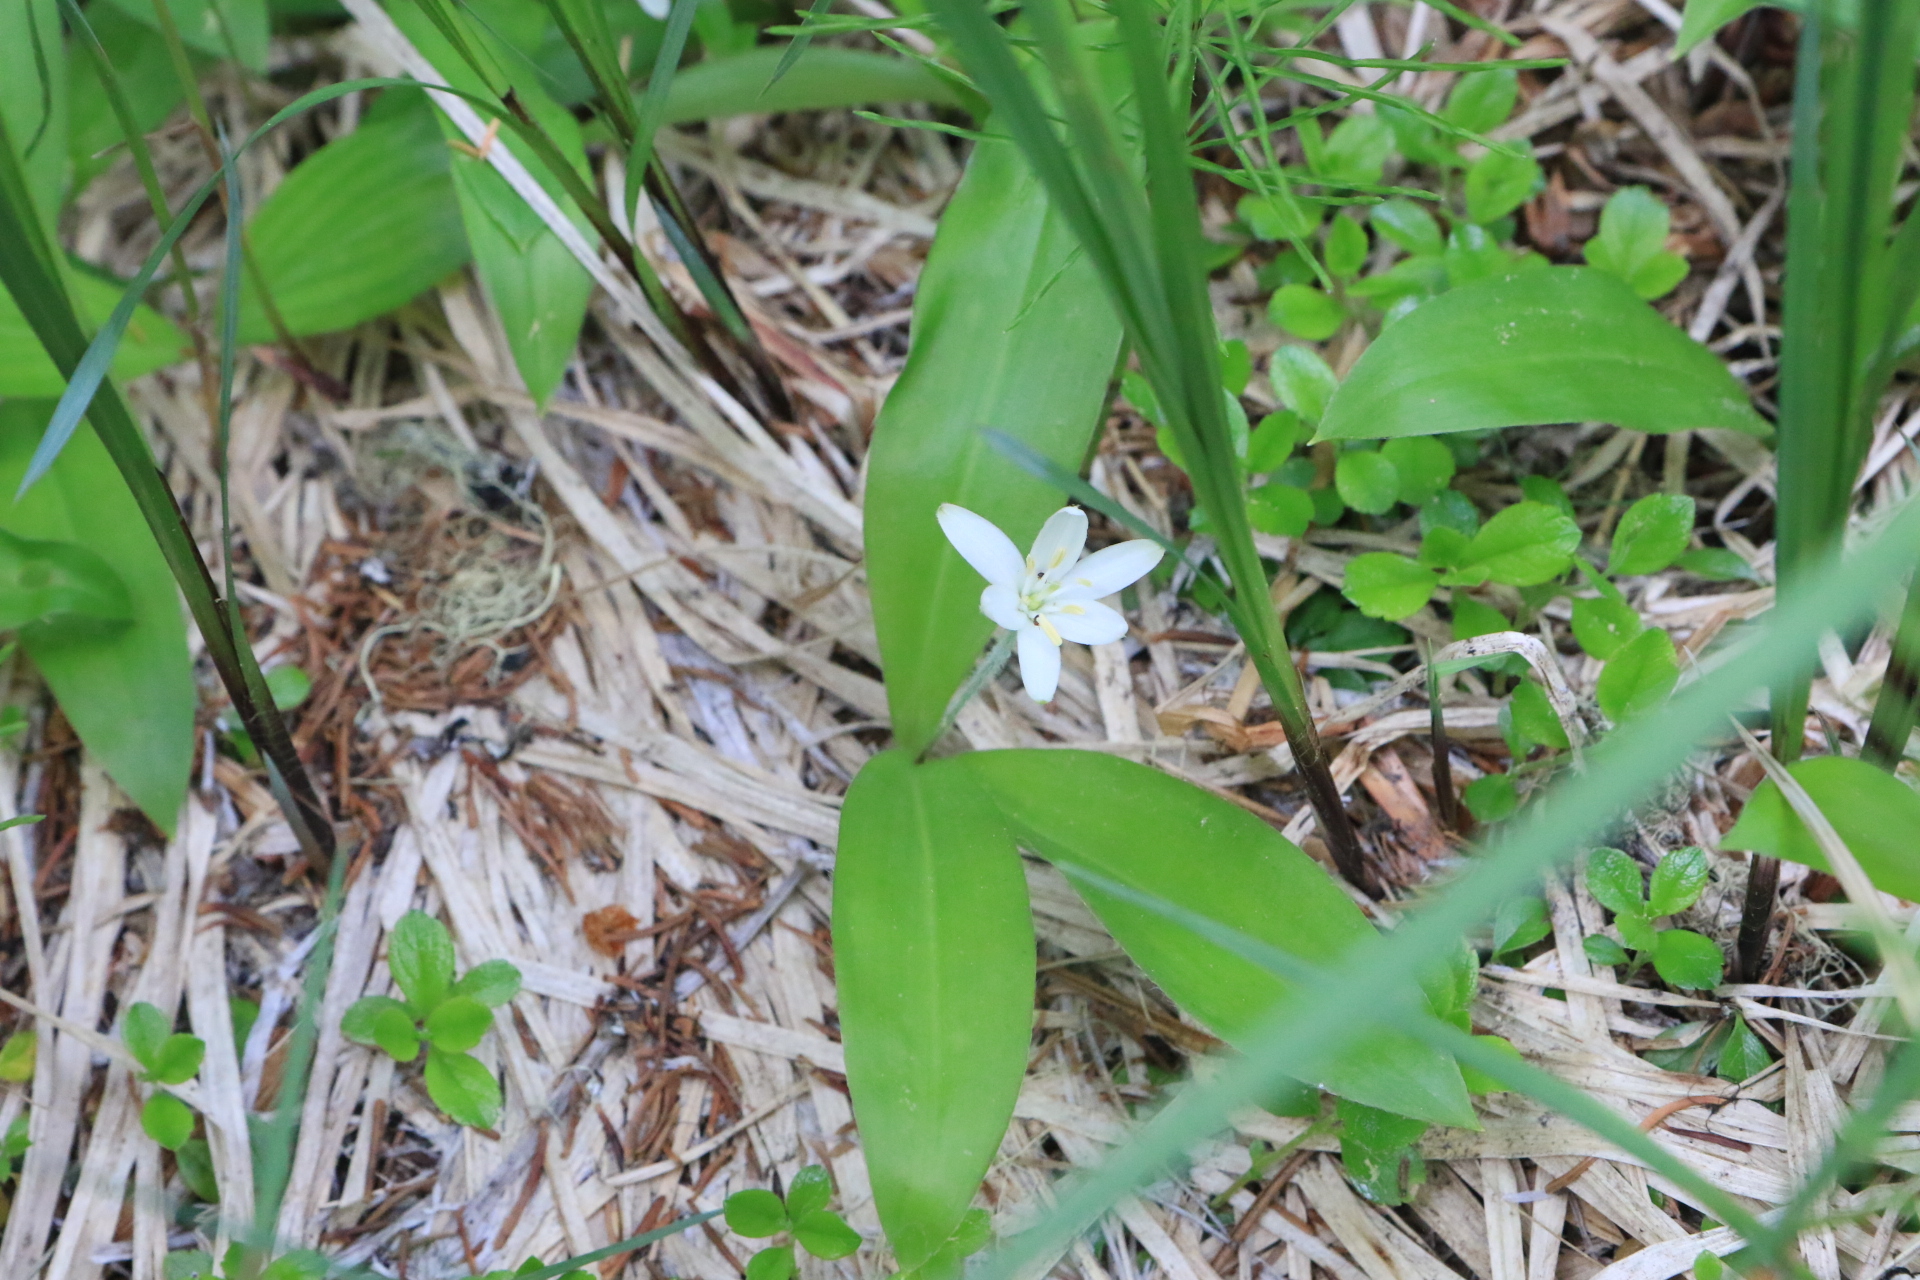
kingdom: Plantae
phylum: Tracheophyta
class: Liliopsida
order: Liliales
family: Liliaceae
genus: Clintonia
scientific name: Clintonia uniflora
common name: Queen's cup
